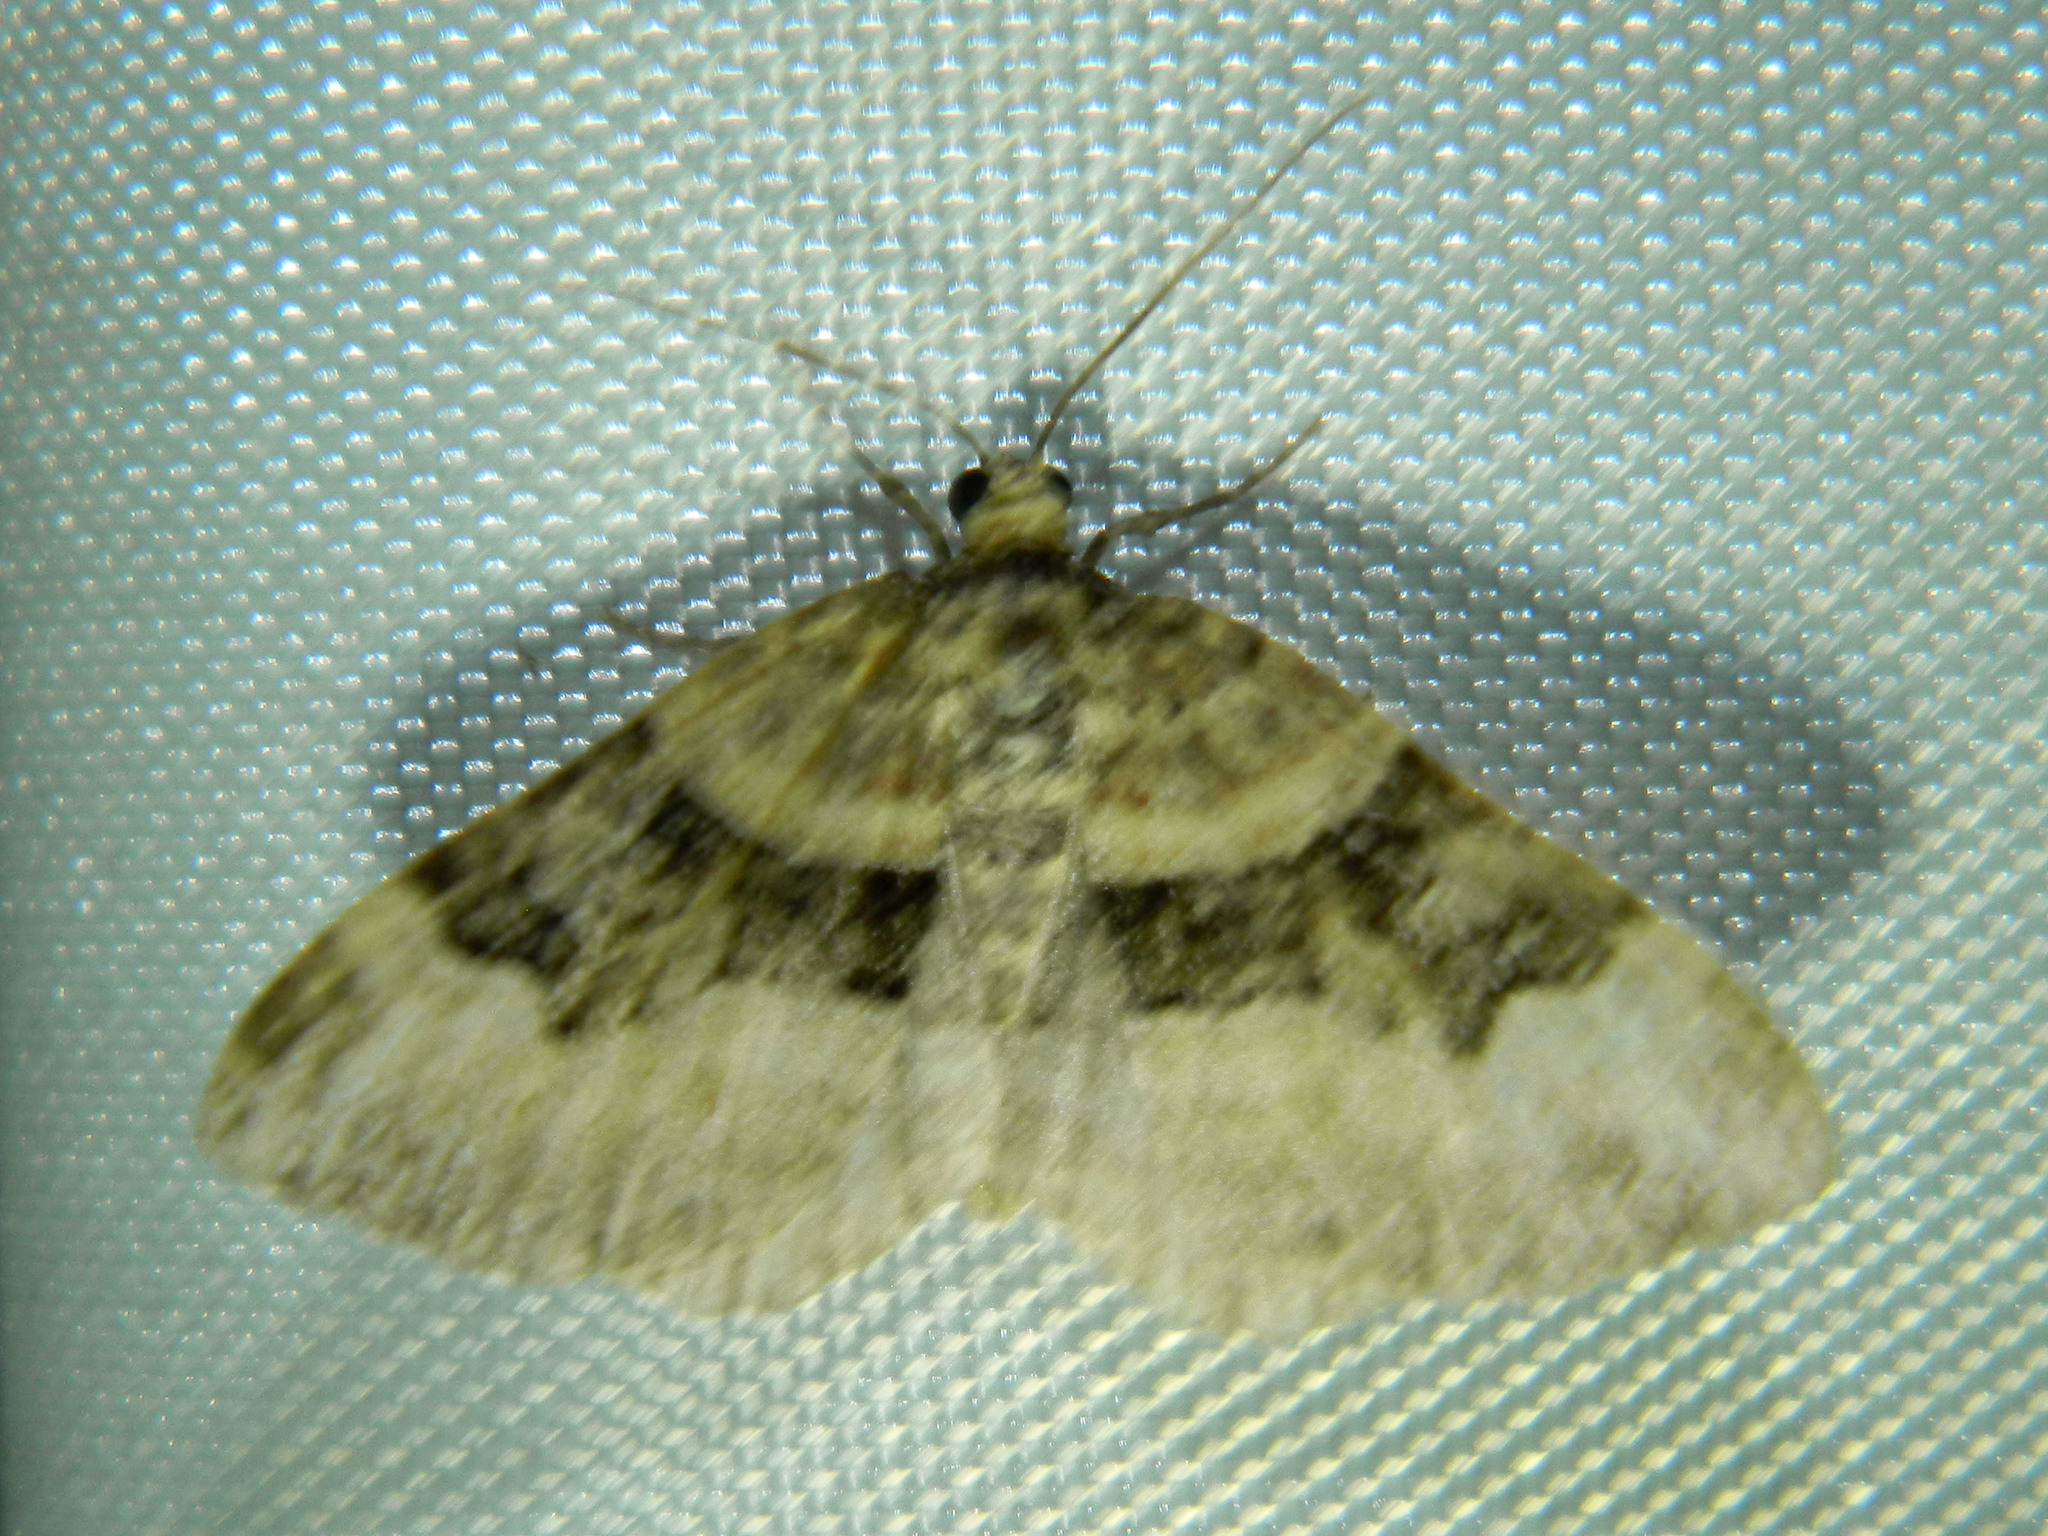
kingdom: Animalia
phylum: Arthropoda
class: Insecta
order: Lepidoptera
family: Geometridae
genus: Xanthorhoe
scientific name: Xanthorhoe lacustrata
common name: Toothed brown carpet
